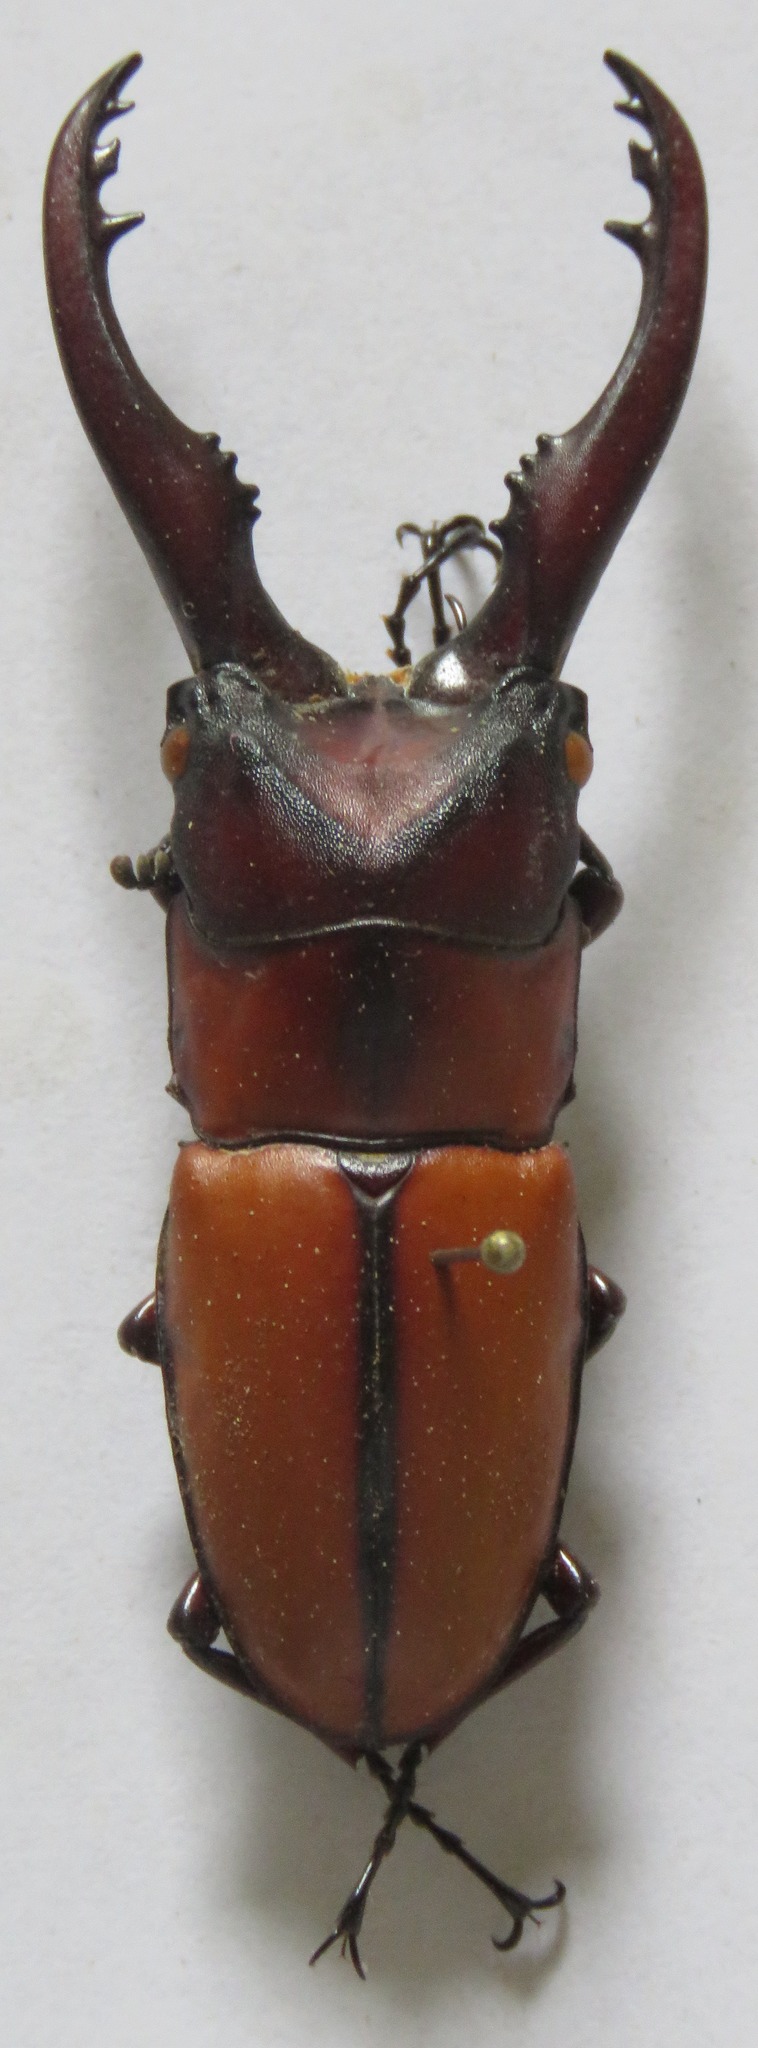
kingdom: Animalia
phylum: Arthropoda
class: Insecta
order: Coleoptera
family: Lucanidae
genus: Prosopocoilus
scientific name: Prosopocoilus mohnikei
